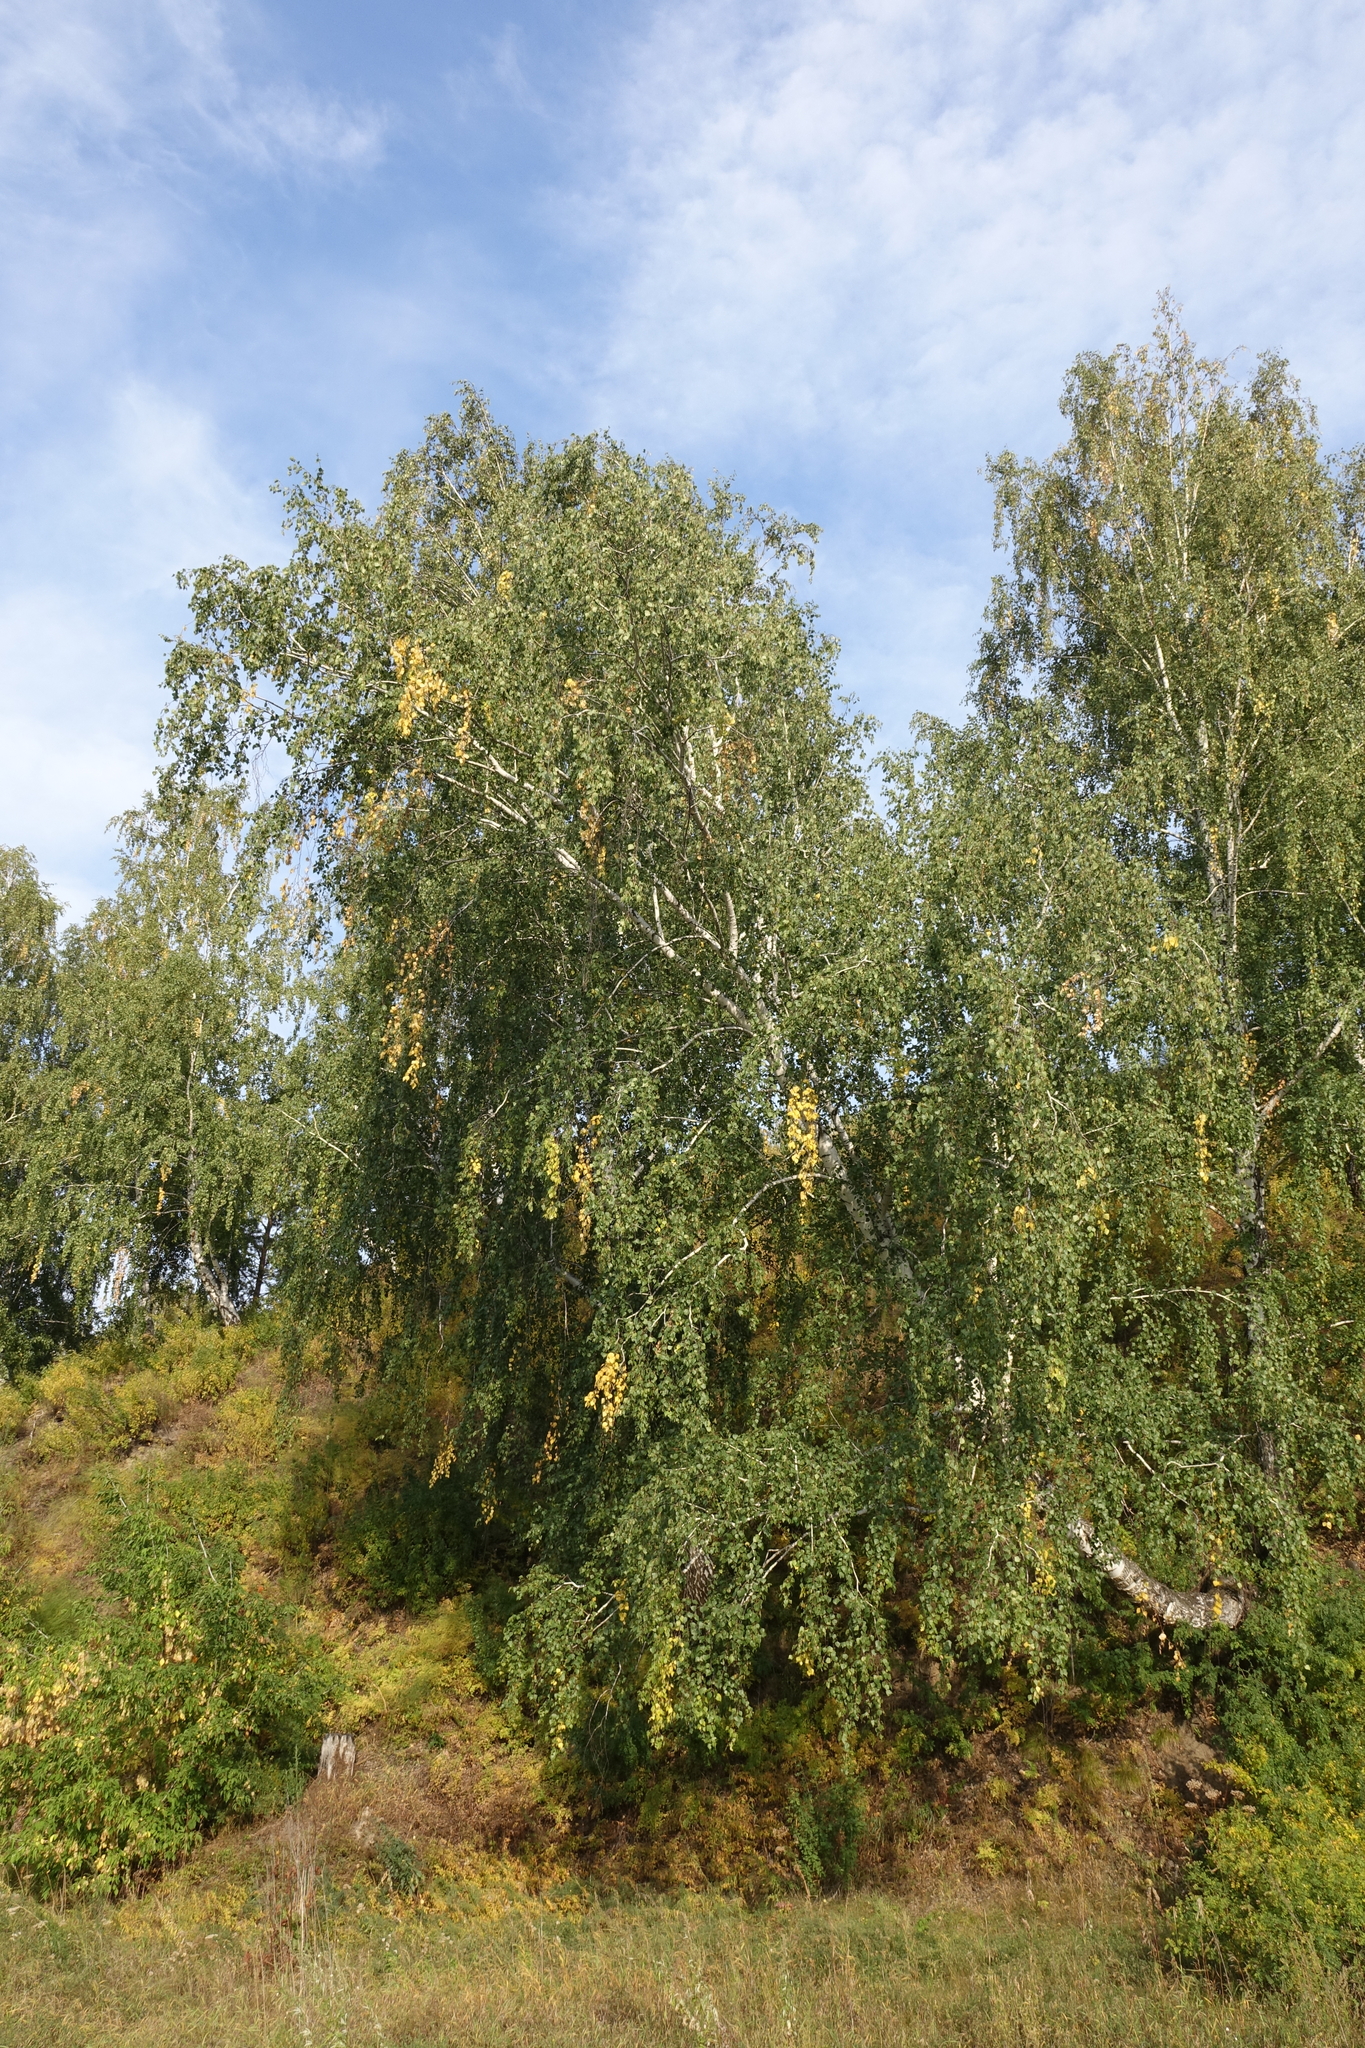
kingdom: Plantae
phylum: Tracheophyta
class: Magnoliopsida
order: Fagales
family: Betulaceae
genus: Betula
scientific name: Betula pendula
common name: Silver birch
